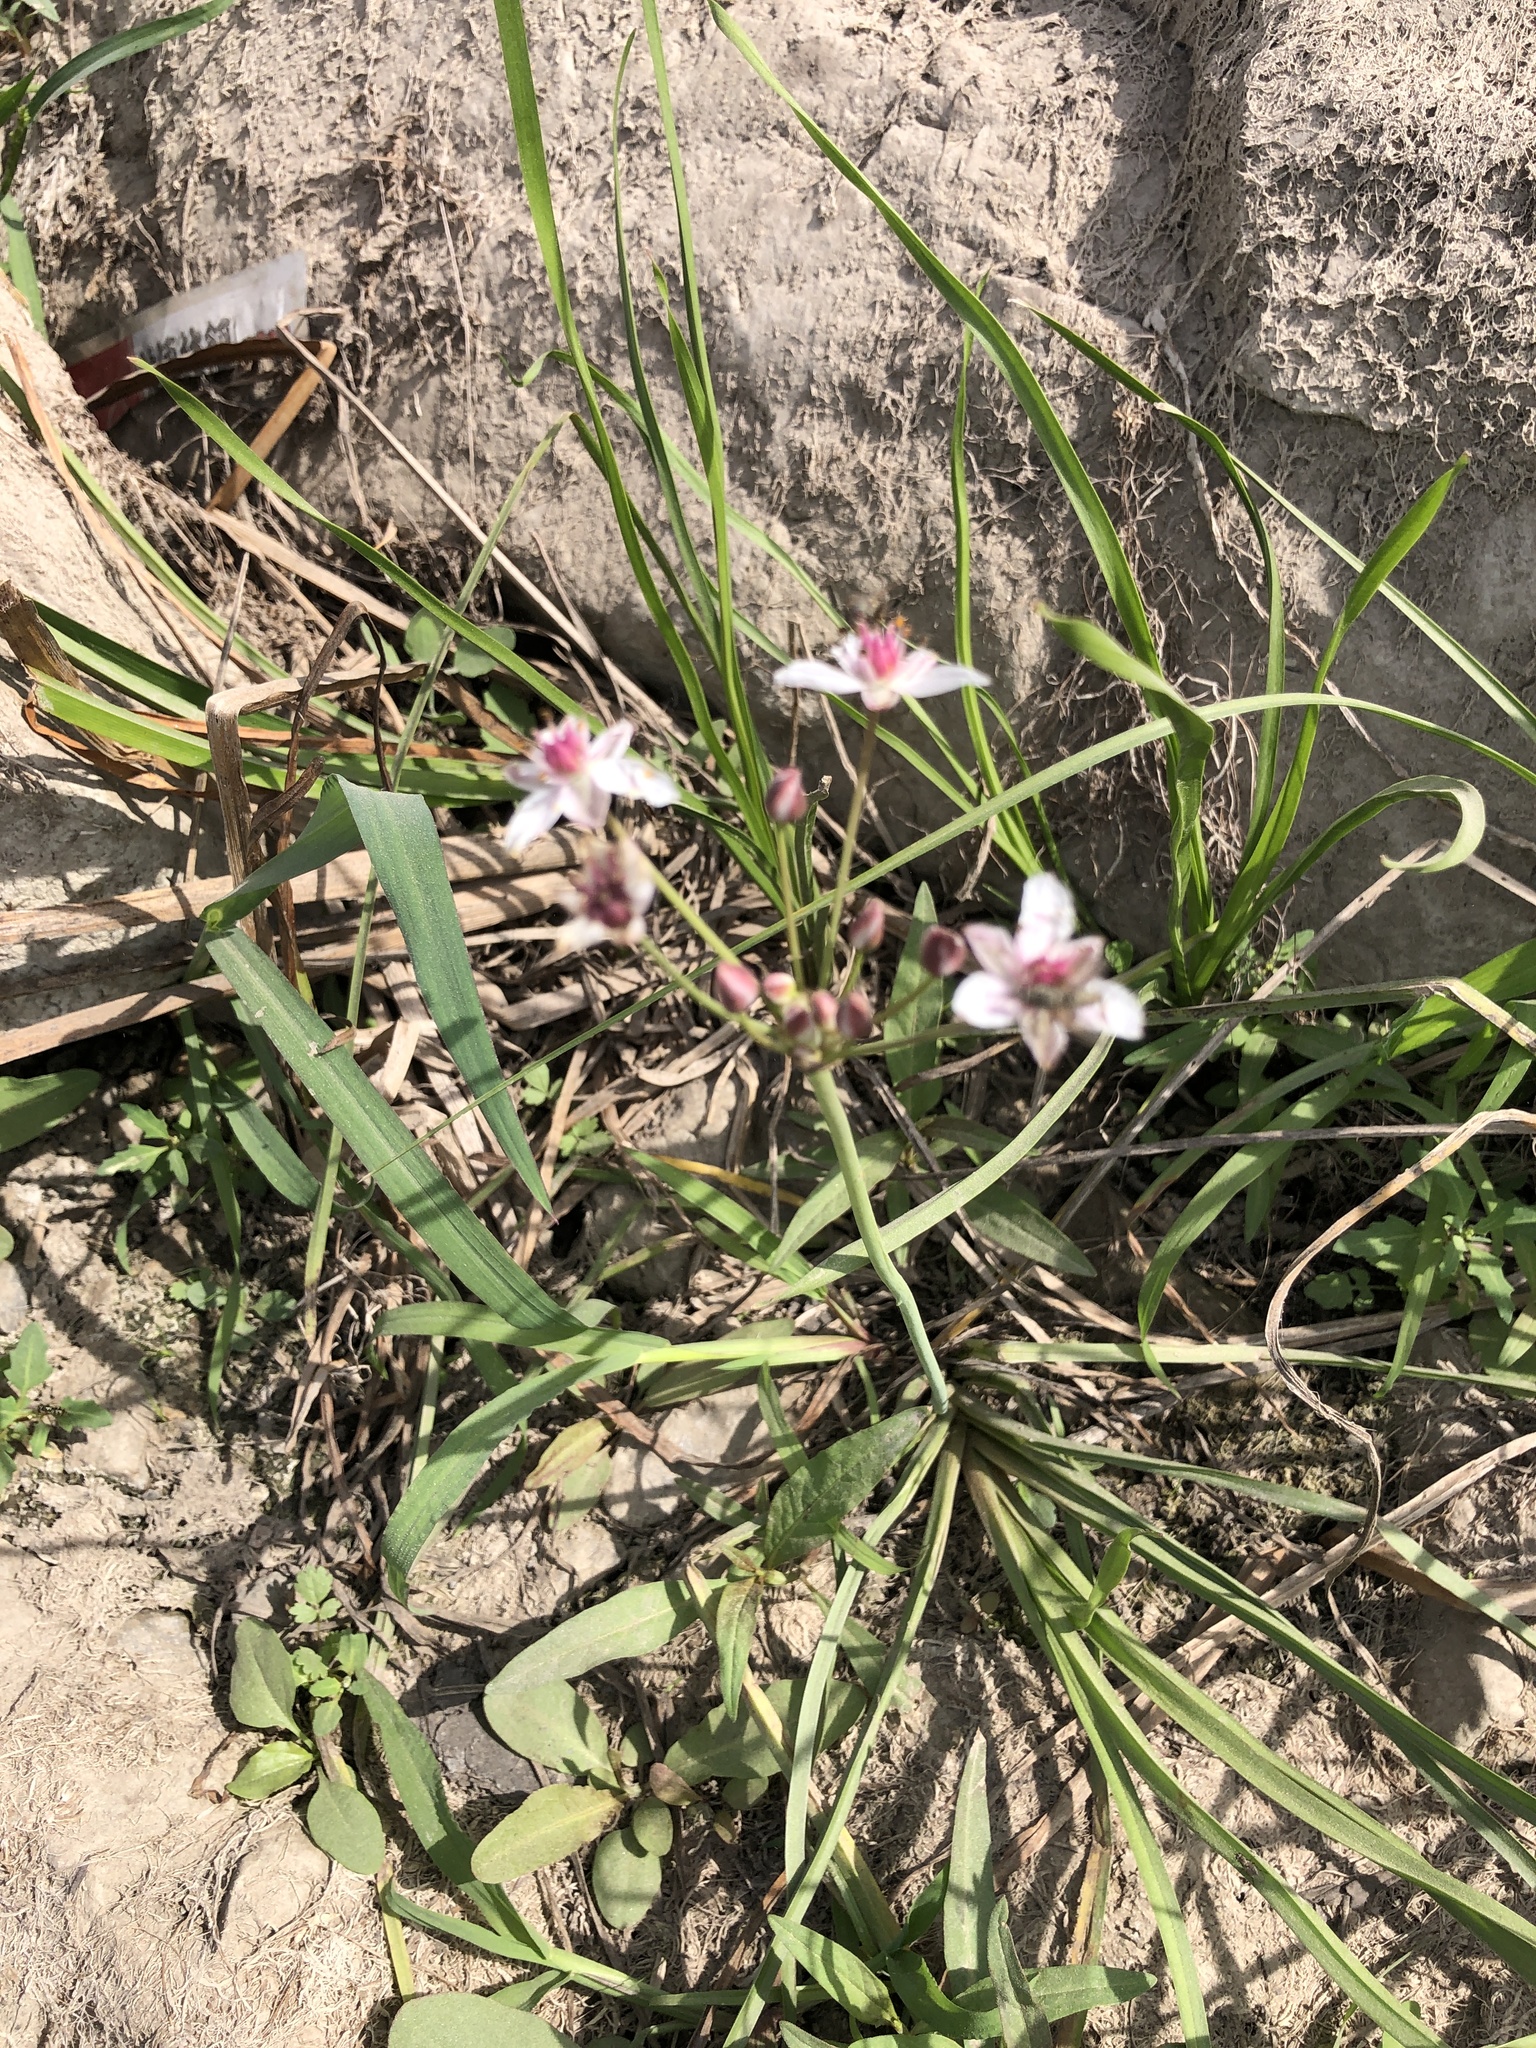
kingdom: Plantae
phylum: Tracheophyta
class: Liliopsida
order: Alismatales
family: Butomaceae
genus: Butomus
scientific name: Butomus umbellatus
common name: Flowering-rush
